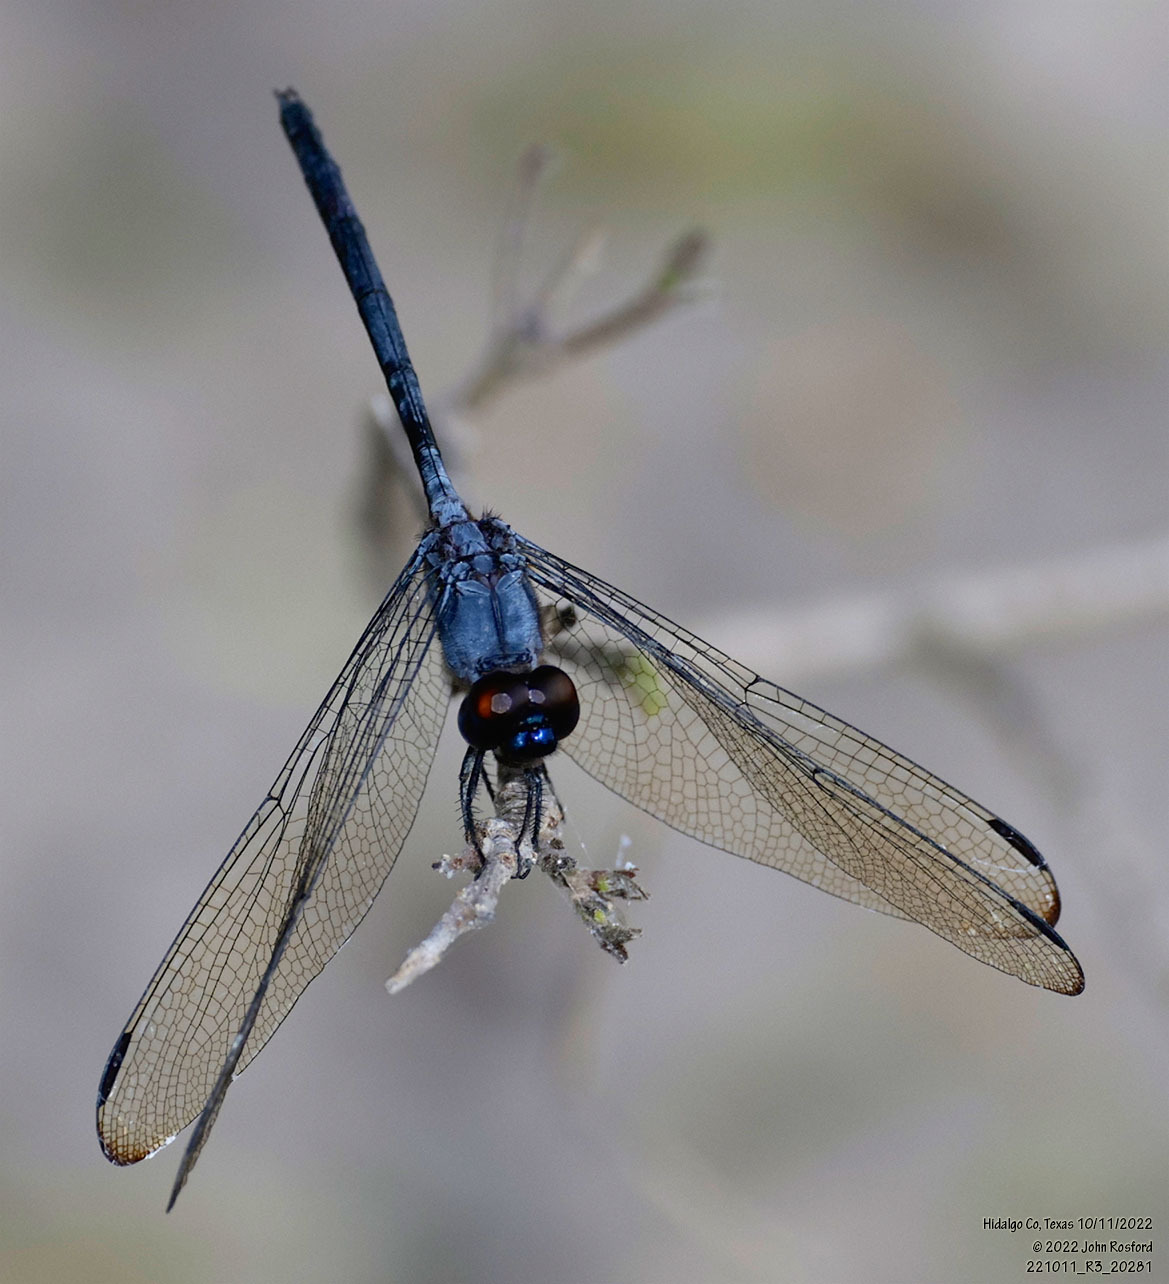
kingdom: Animalia
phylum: Arthropoda
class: Insecta
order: Odonata
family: Libellulidae
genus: Dythemis
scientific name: Dythemis nigrescens
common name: Black setwing
